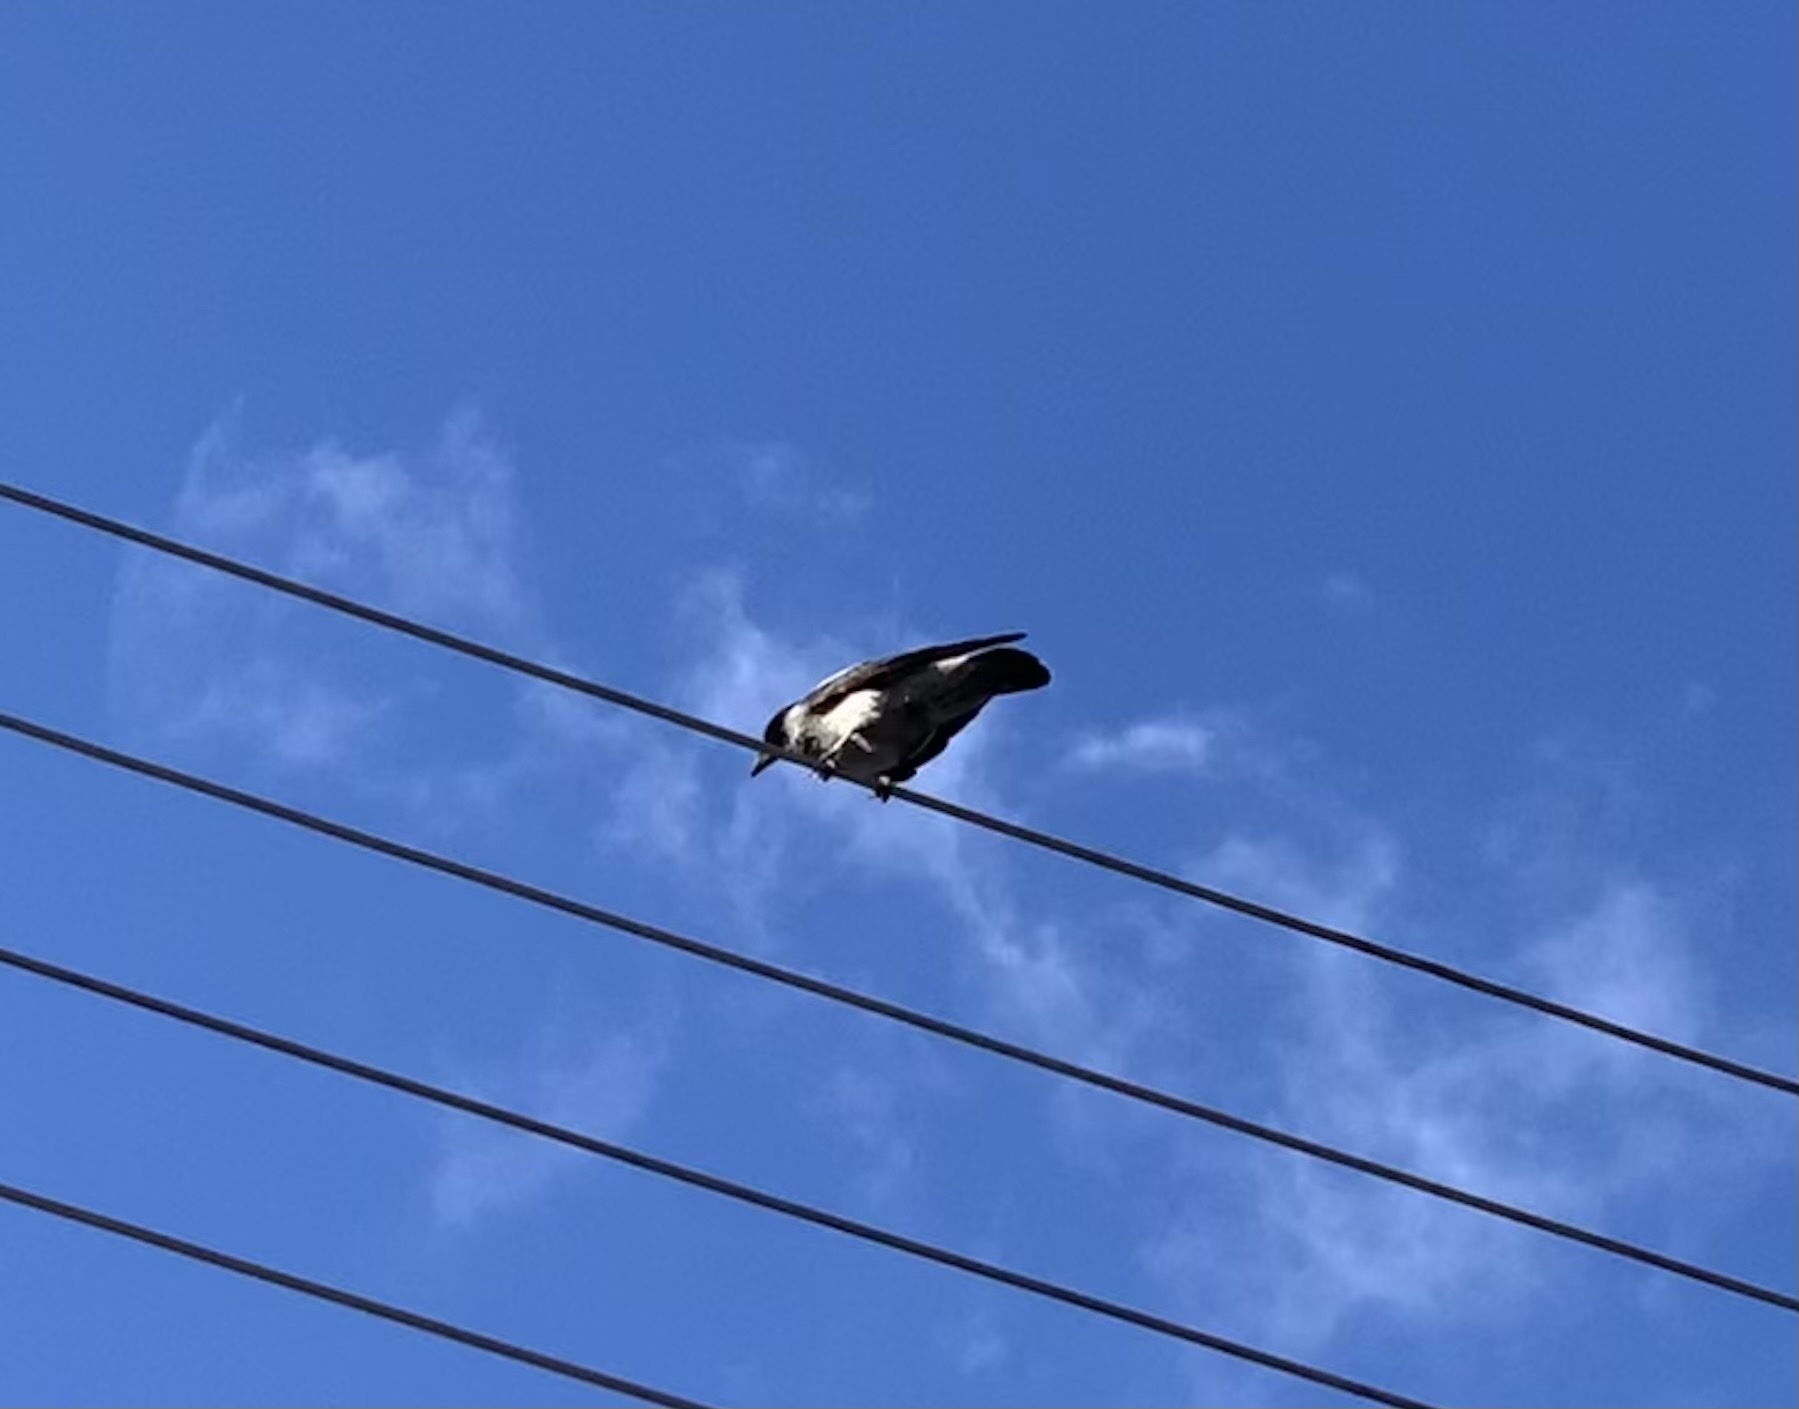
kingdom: Animalia
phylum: Chordata
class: Aves
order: Passeriformes
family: Corvidae
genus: Corvus
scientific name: Corvus cornix
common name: Hooded crow
